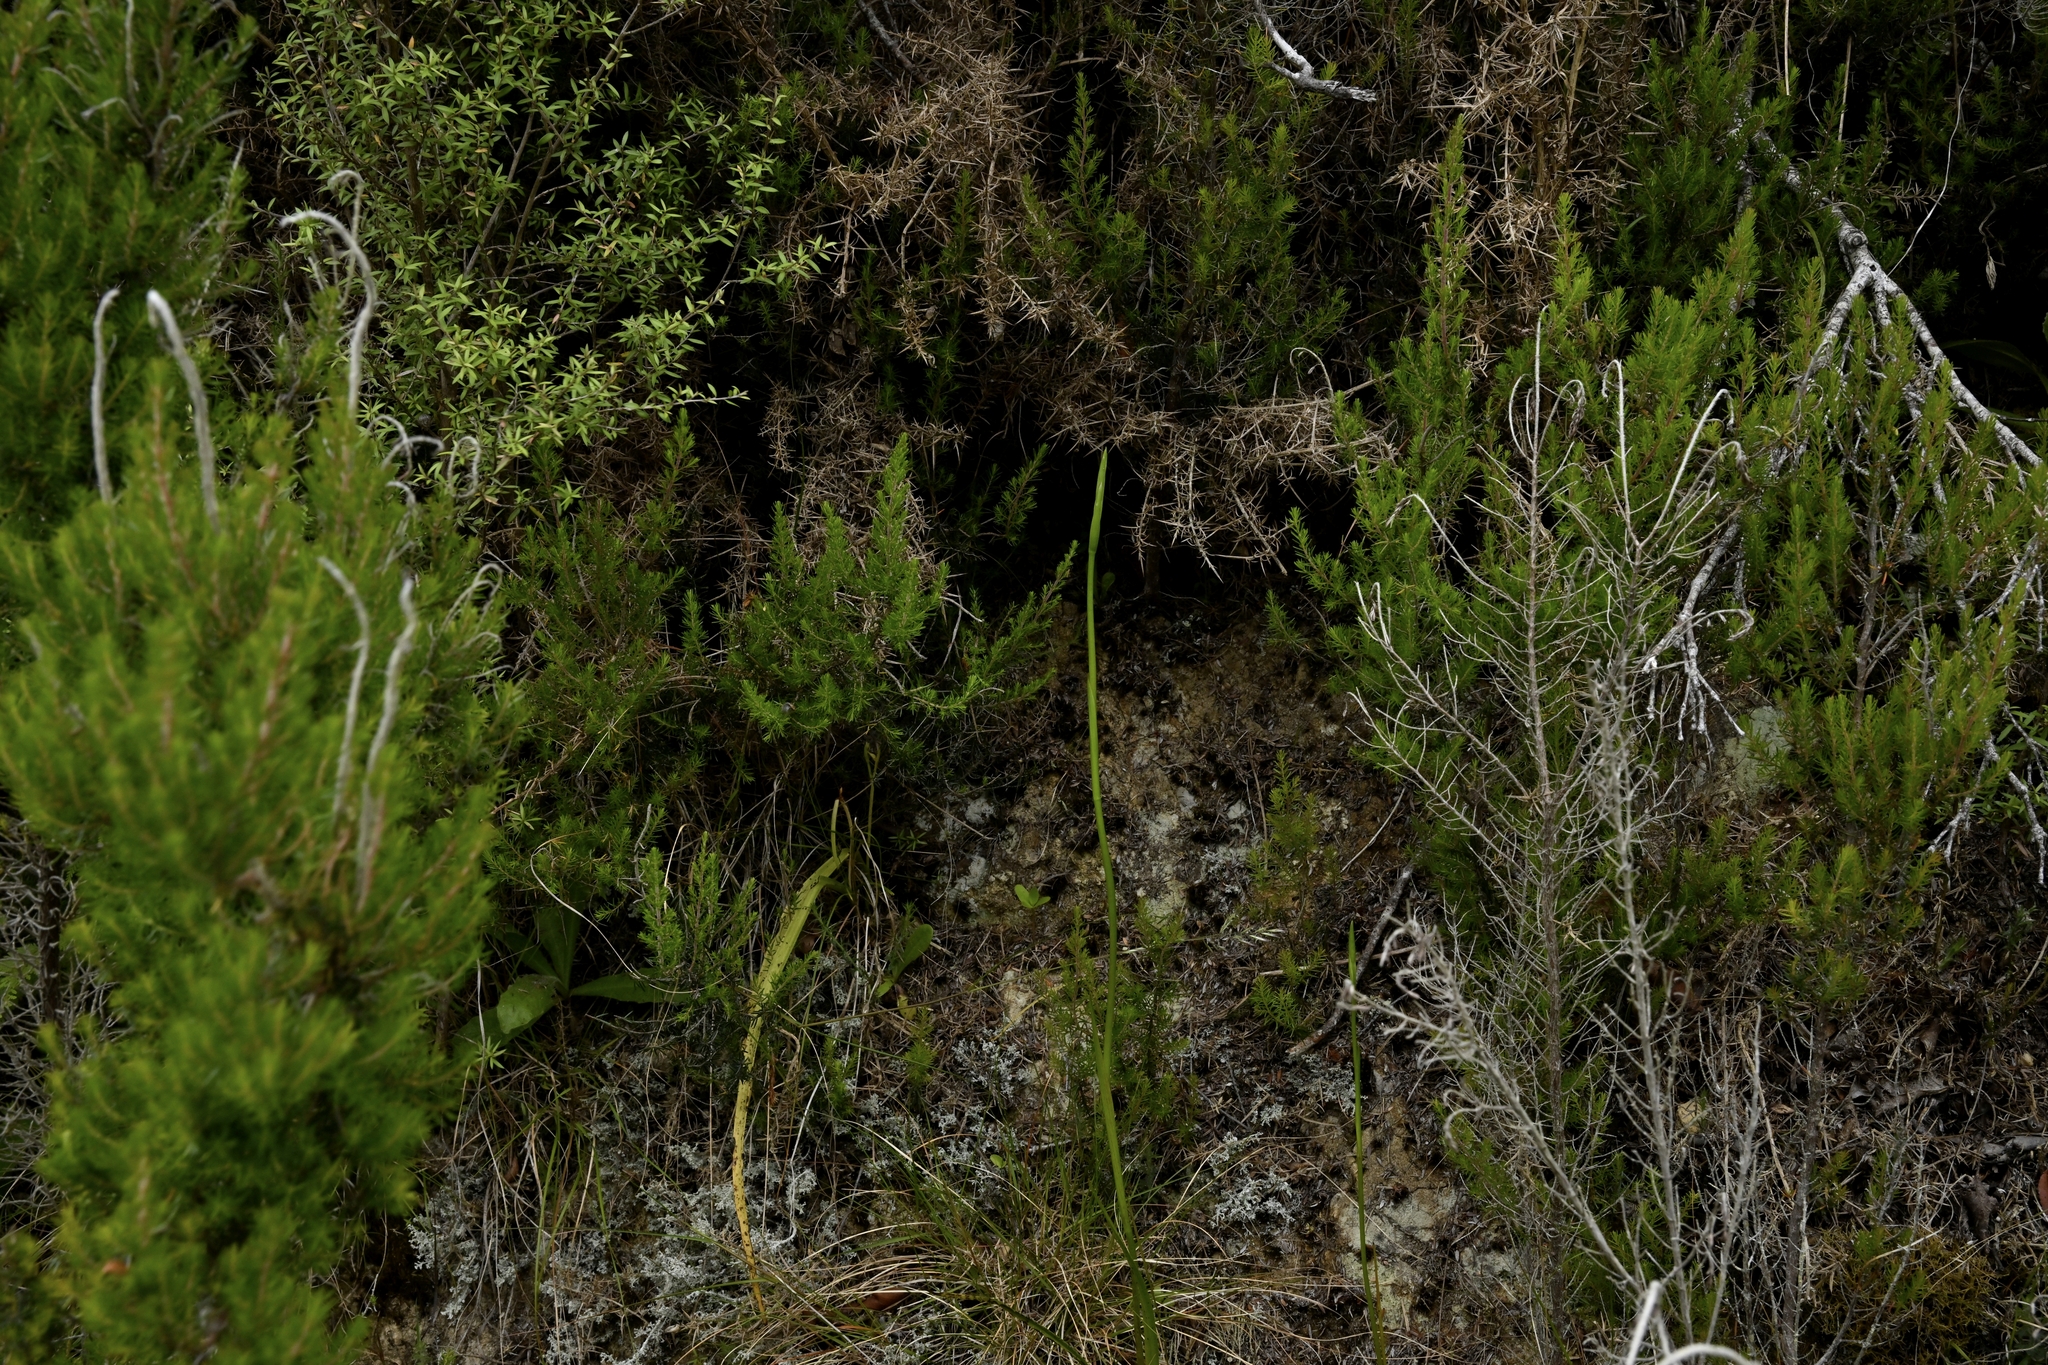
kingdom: Plantae
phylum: Tracheophyta
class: Liliopsida
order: Asparagales
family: Orchidaceae
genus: Orthoceras
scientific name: Orthoceras novae-zeelandiae
